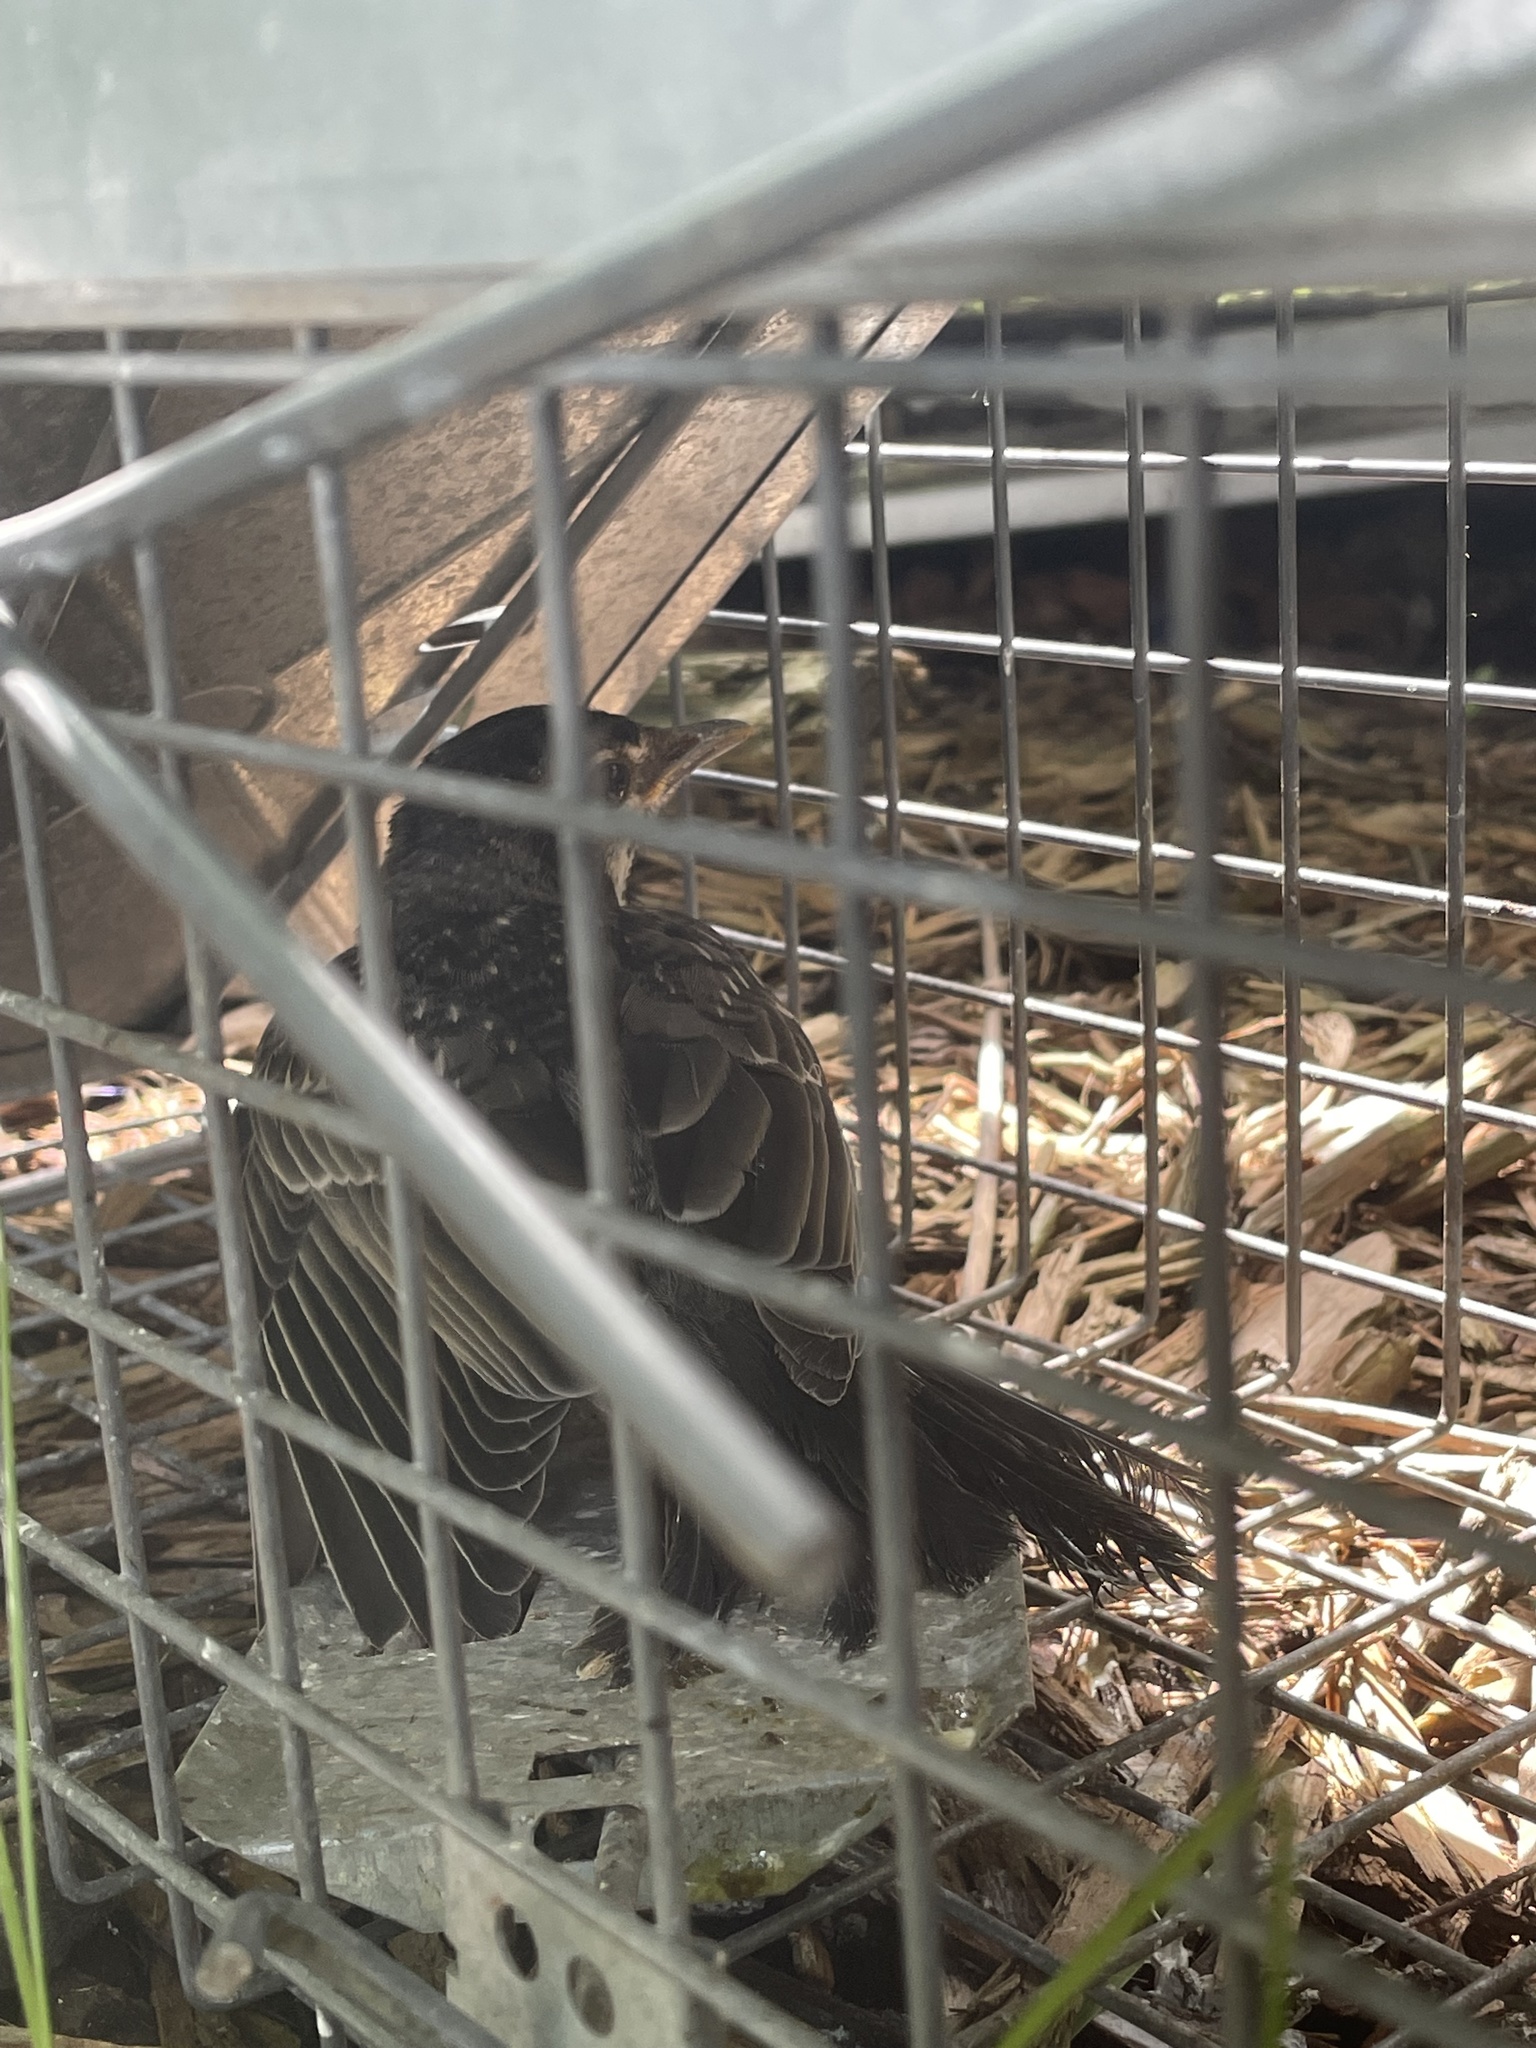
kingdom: Animalia
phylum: Chordata
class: Aves
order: Passeriformes
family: Turdidae
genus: Turdus
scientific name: Turdus migratorius
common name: American robin
